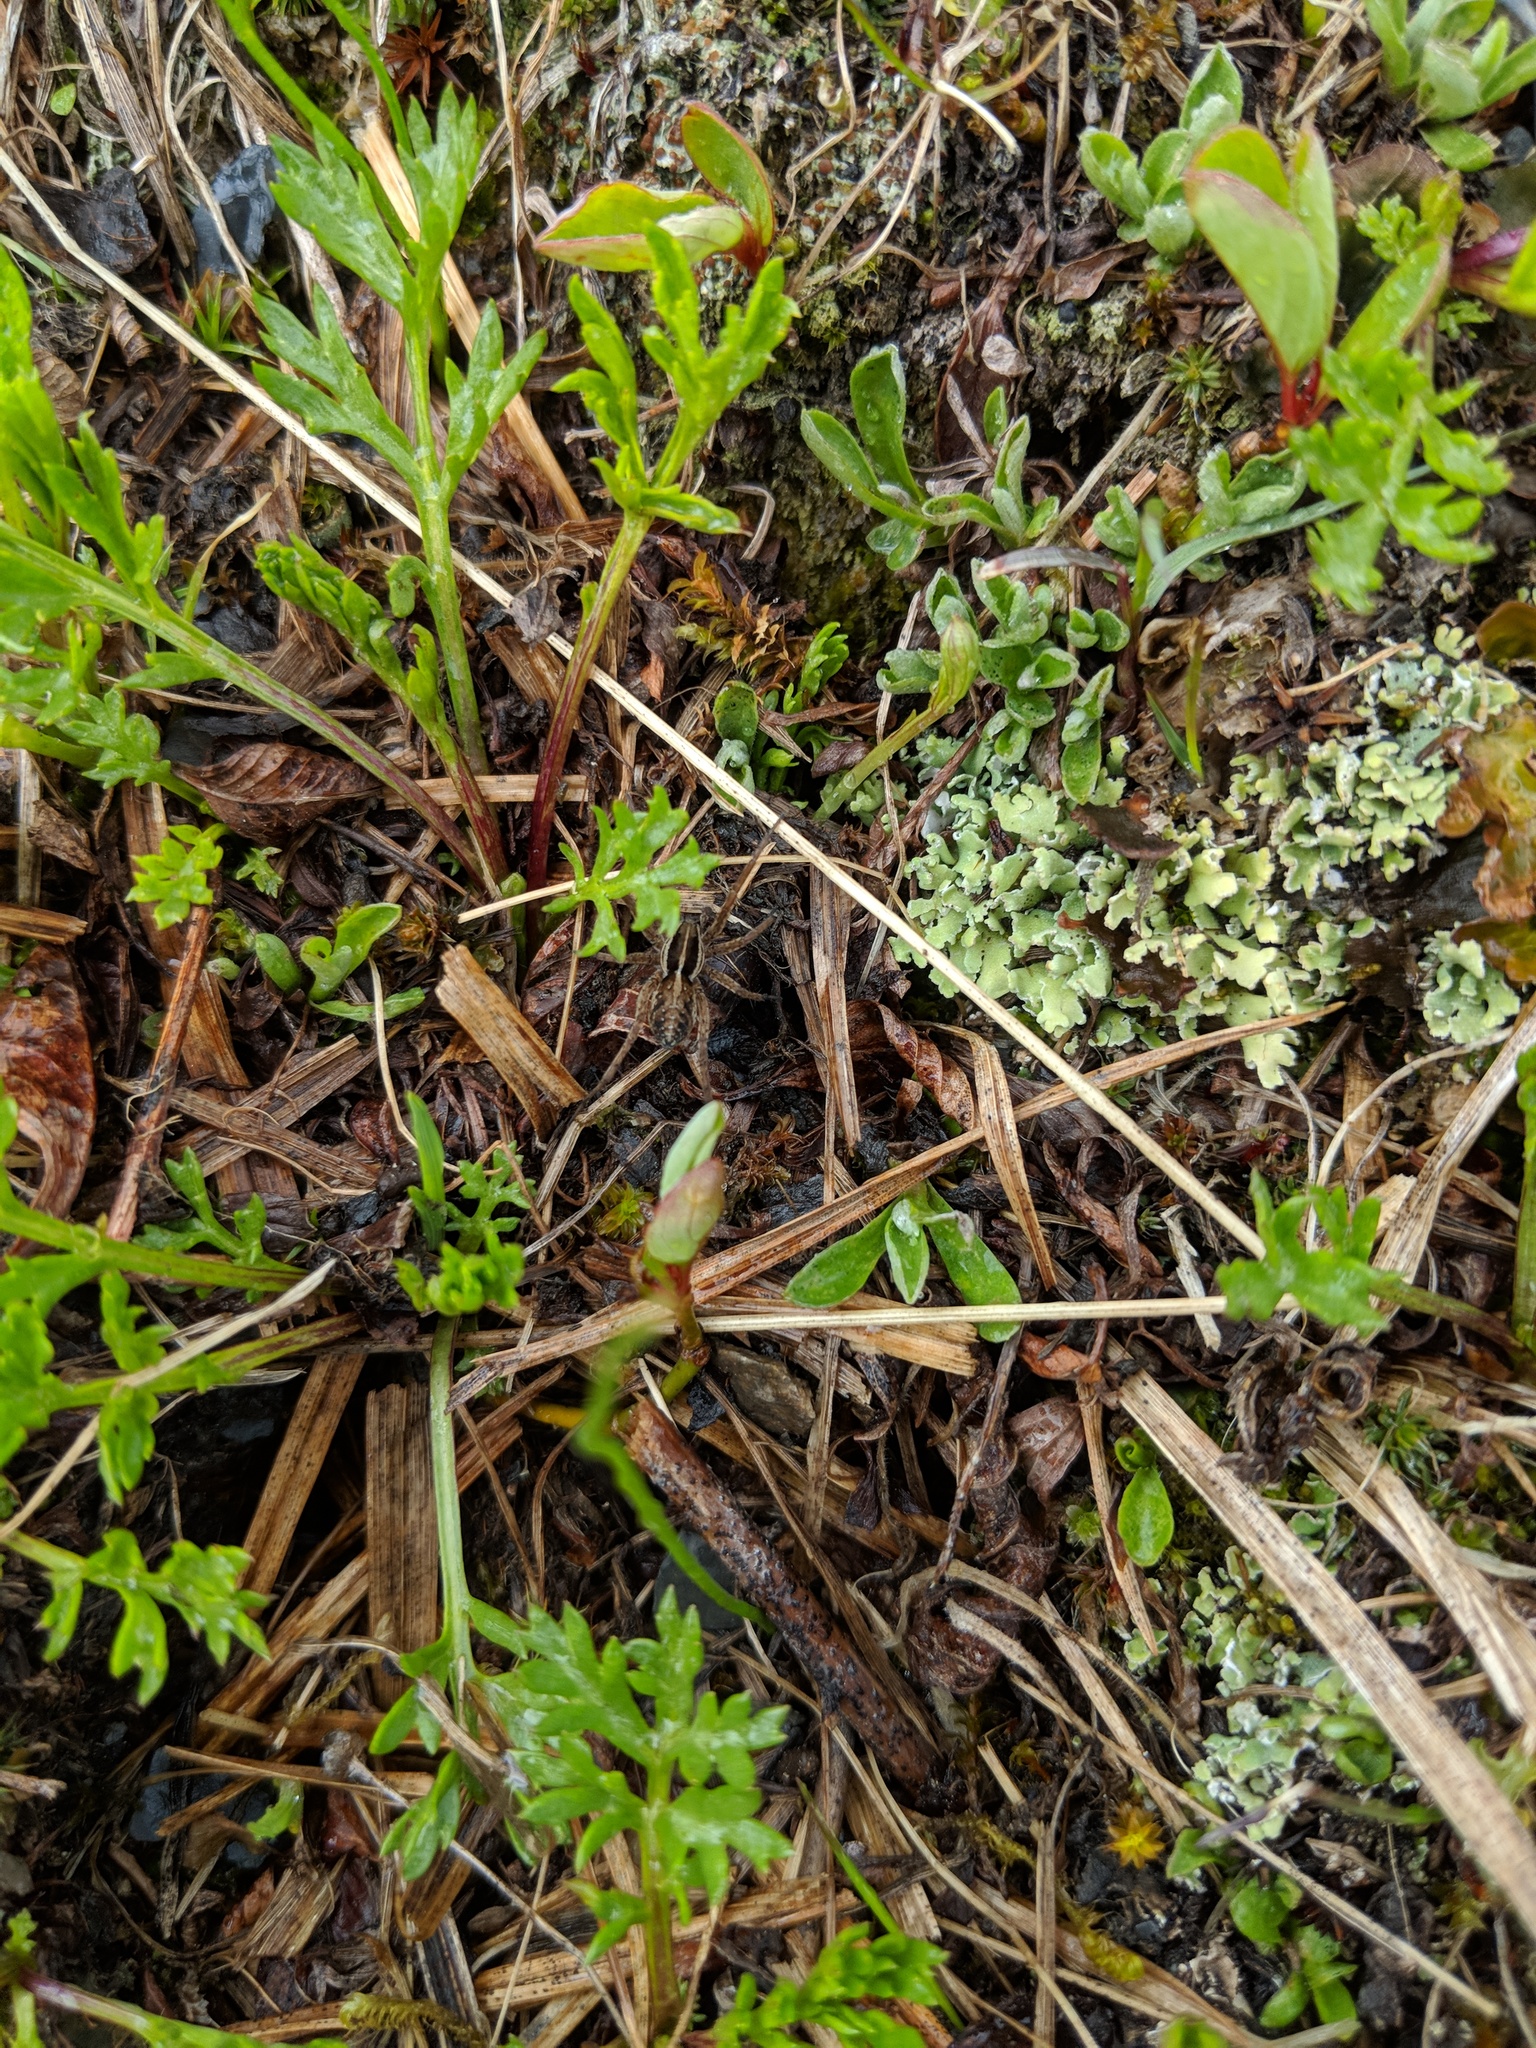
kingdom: Animalia
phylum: Arthropoda
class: Arachnida
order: Araneae
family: Lycosidae
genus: Pardosa
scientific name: Pardosa palustris
